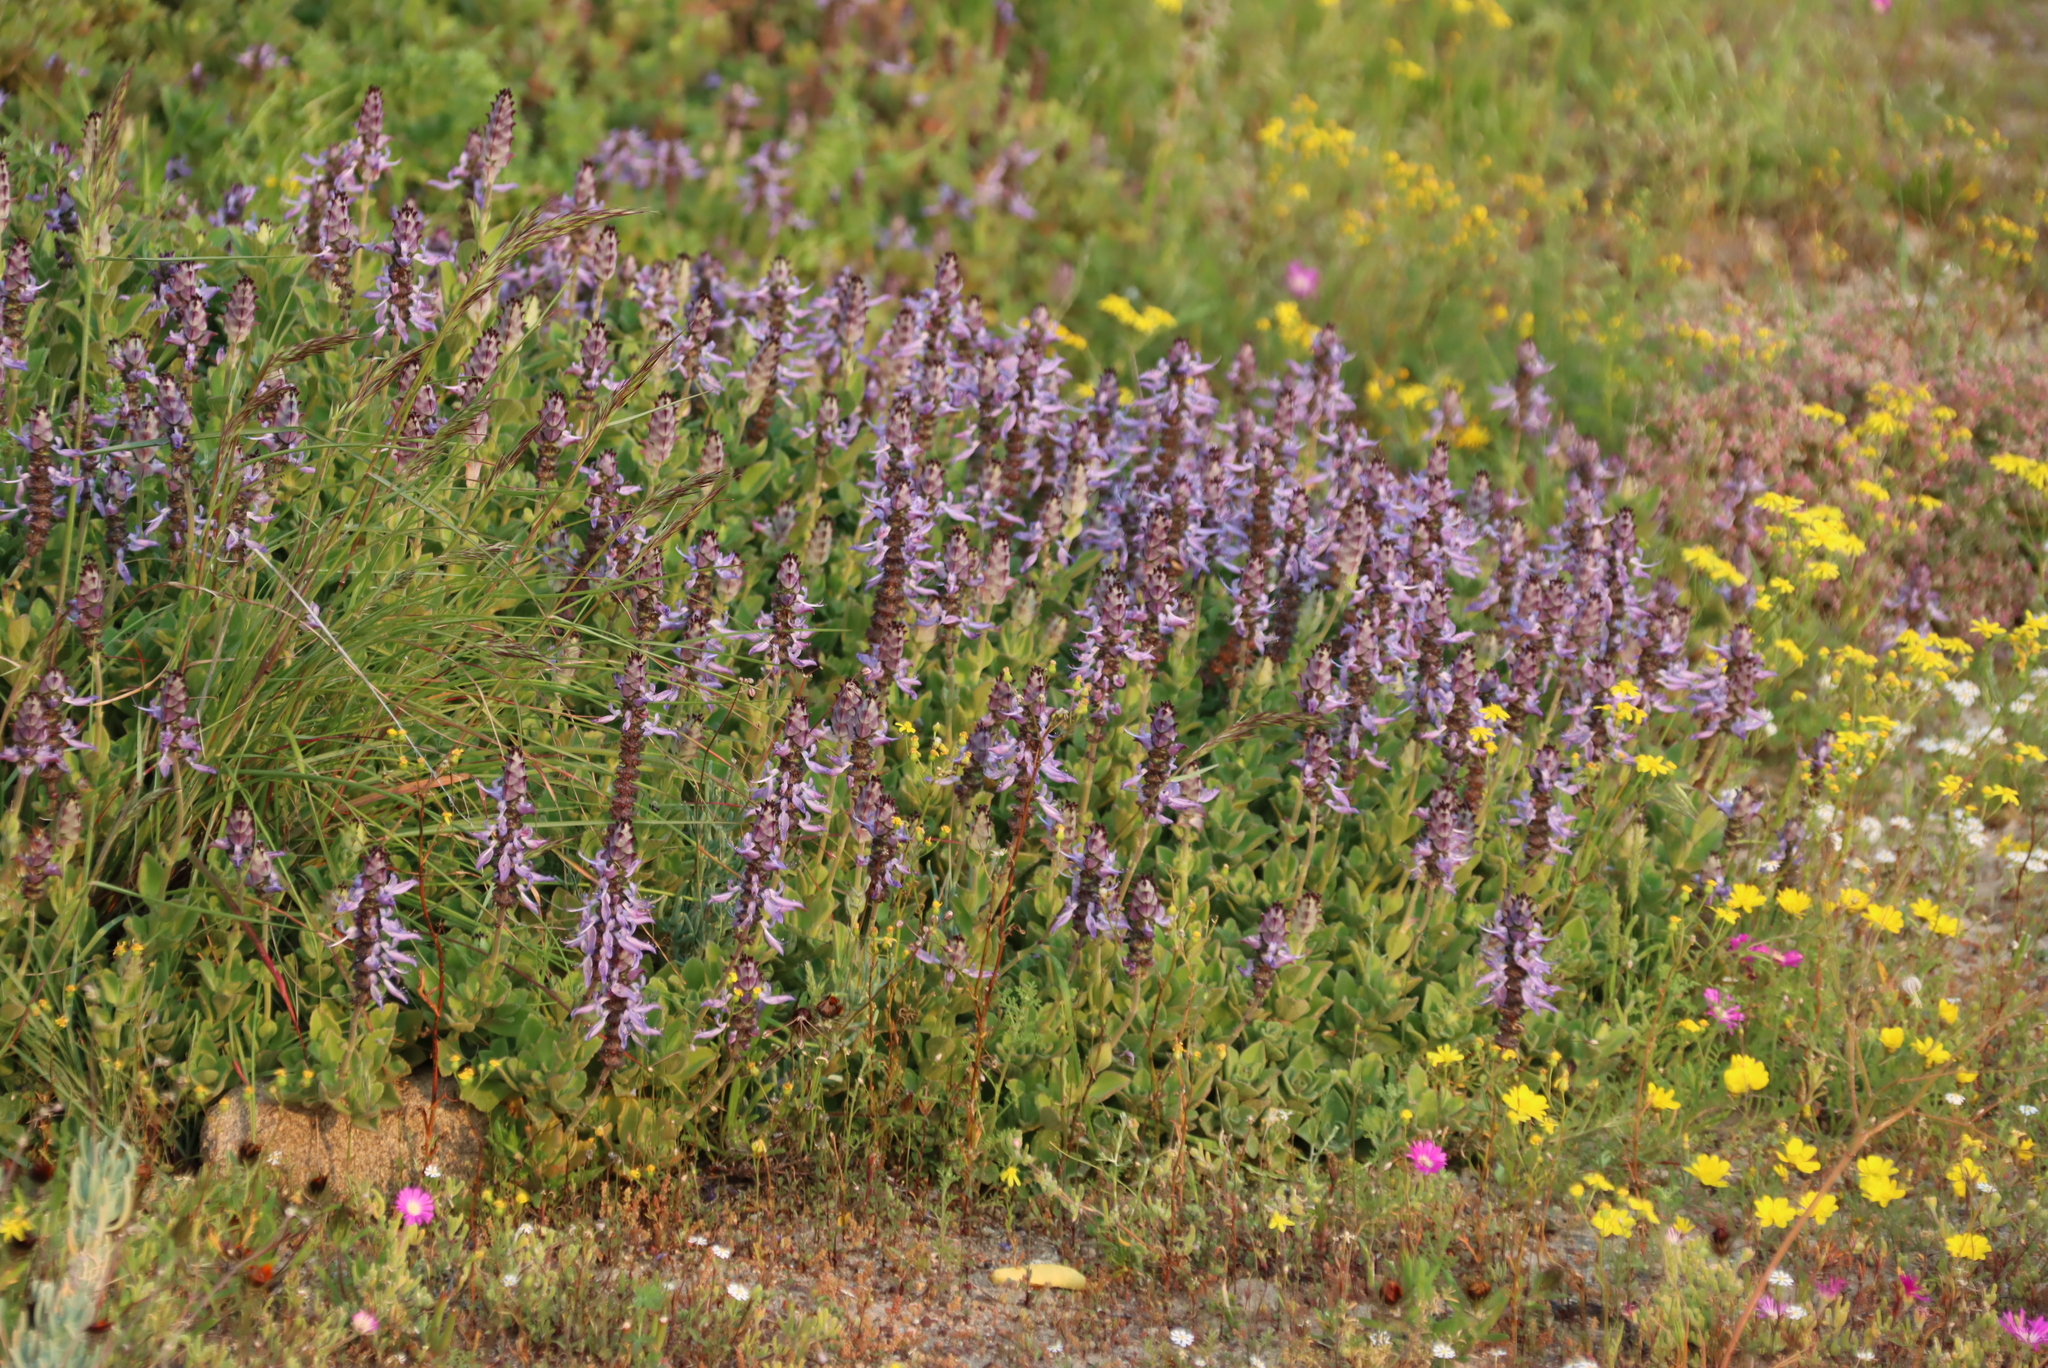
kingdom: Plantae
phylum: Tracheophyta
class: Magnoliopsida
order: Lamiales
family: Lamiaceae
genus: Coleus
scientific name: Coleus neochilus
